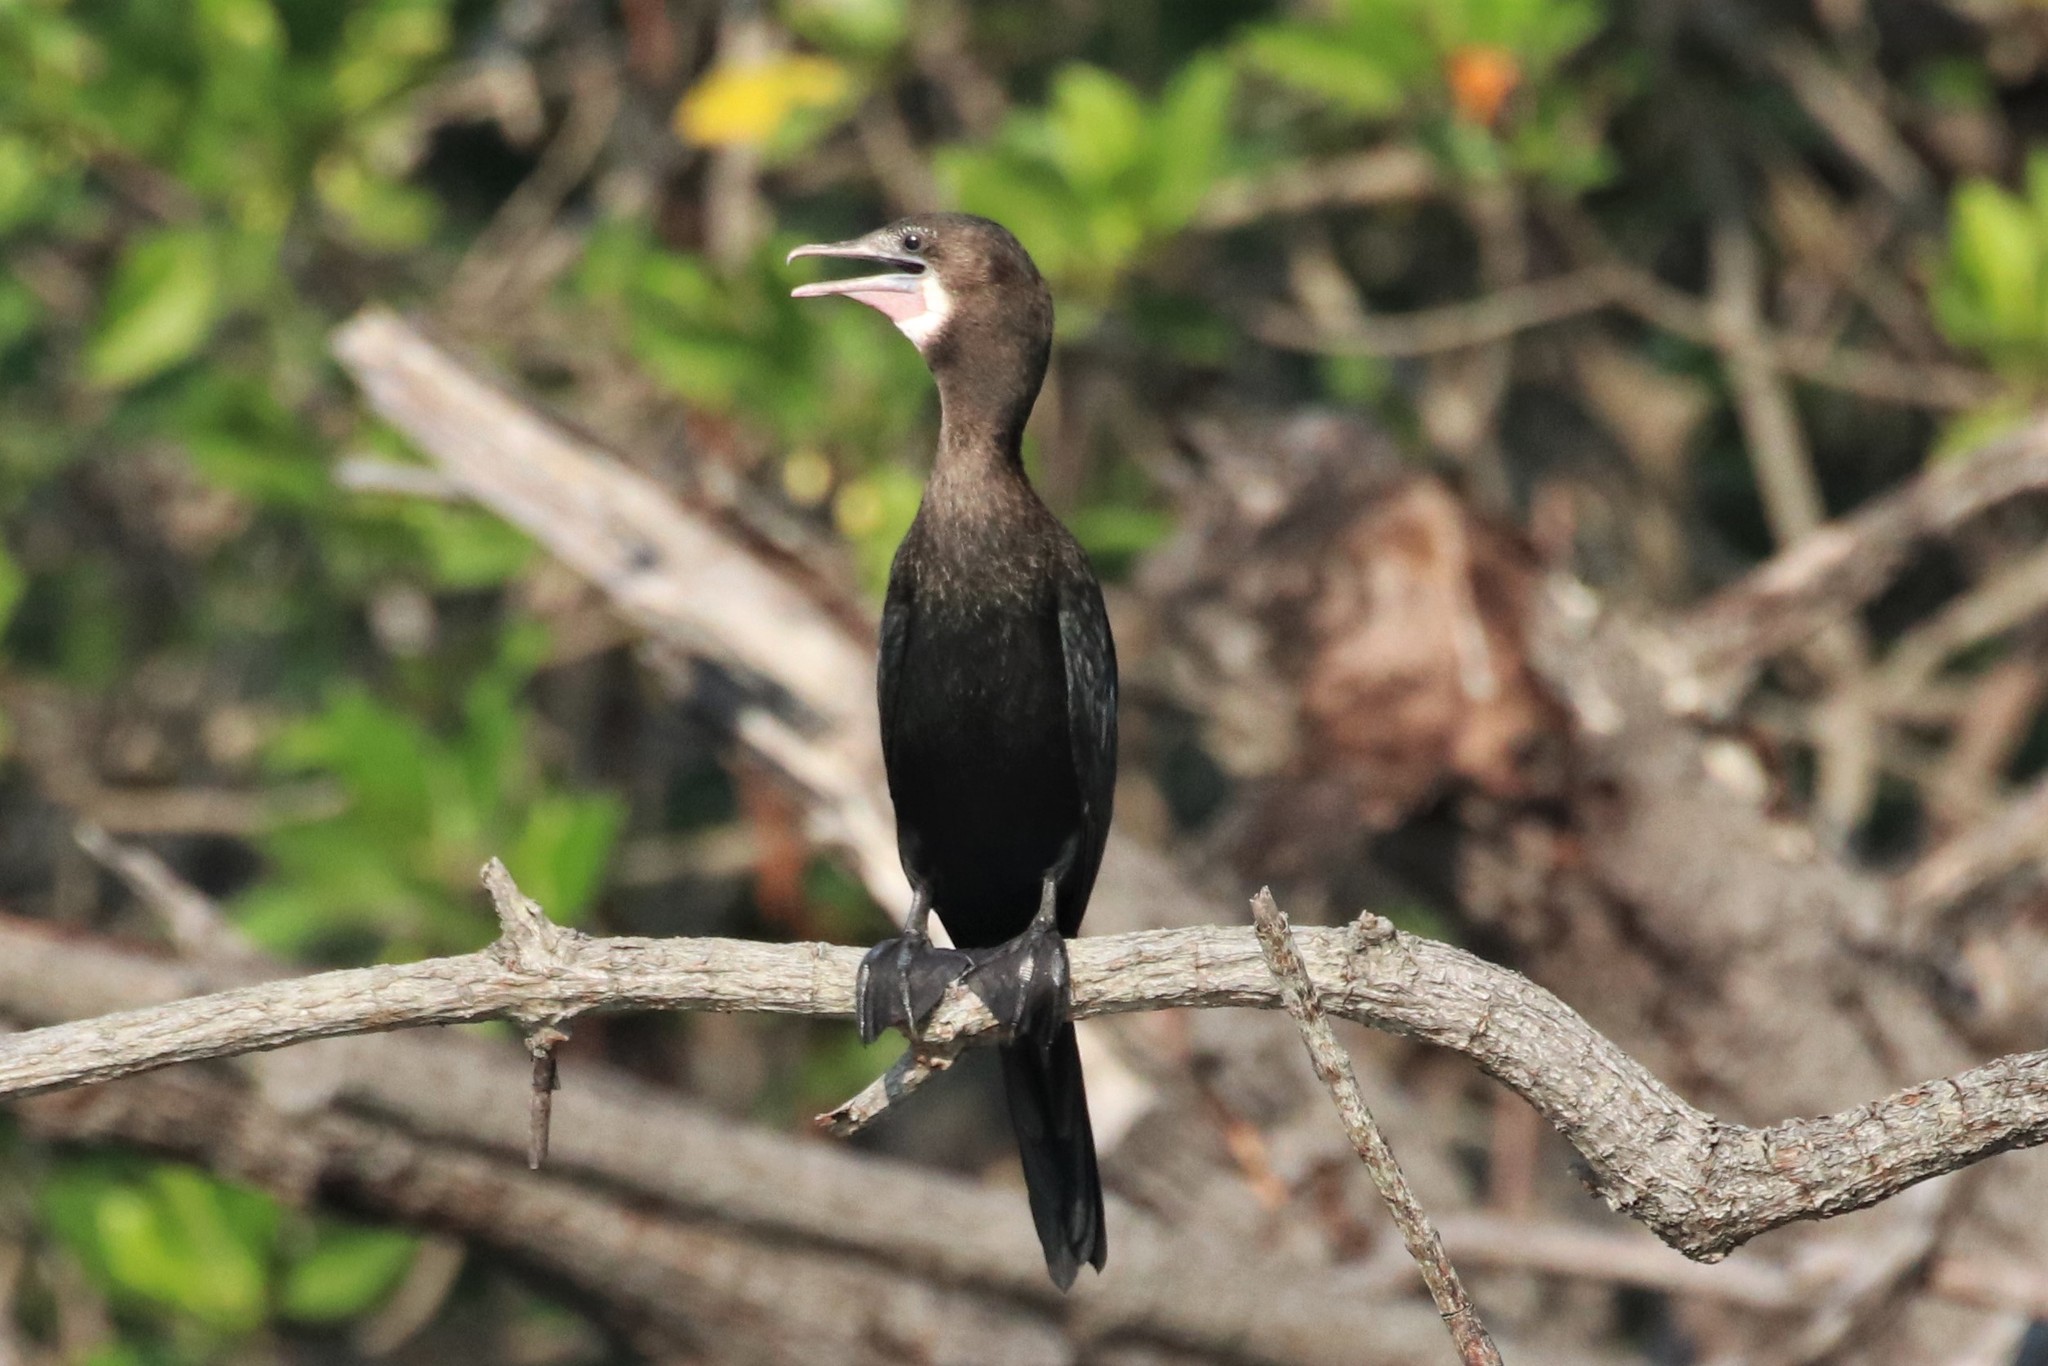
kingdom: Animalia
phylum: Chordata
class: Aves
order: Suliformes
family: Phalacrocoracidae
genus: Microcarbo
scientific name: Microcarbo niger
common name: Little cormorant
